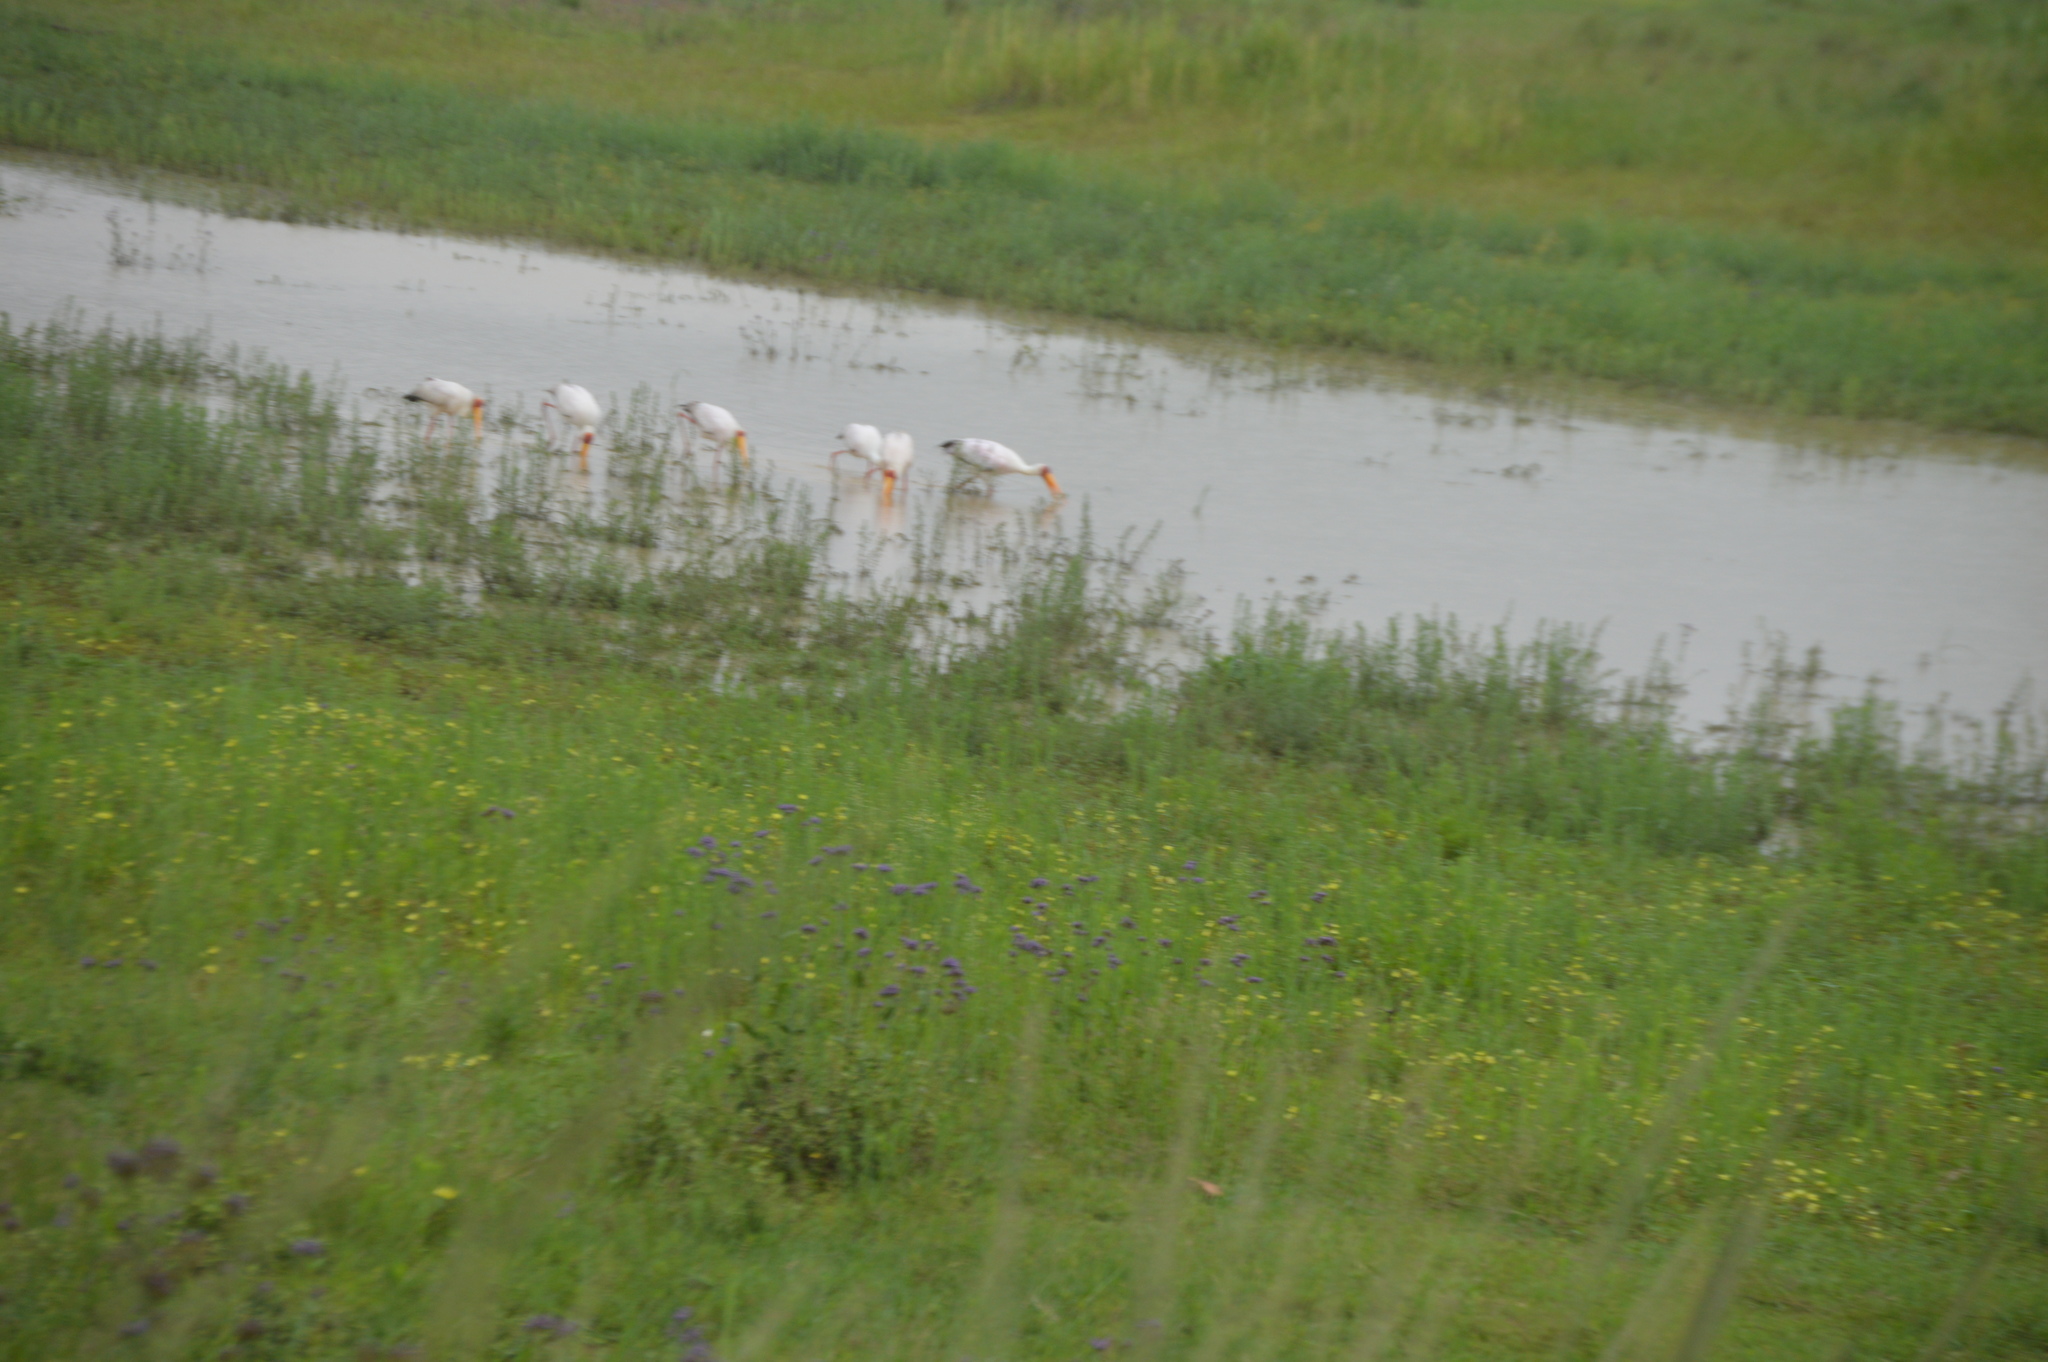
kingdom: Animalia
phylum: Chordata
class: Aves
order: Ciconiiformes
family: Ciconiidae
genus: Mycteria
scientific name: Mycteria ibis
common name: Yellow-billed stork
